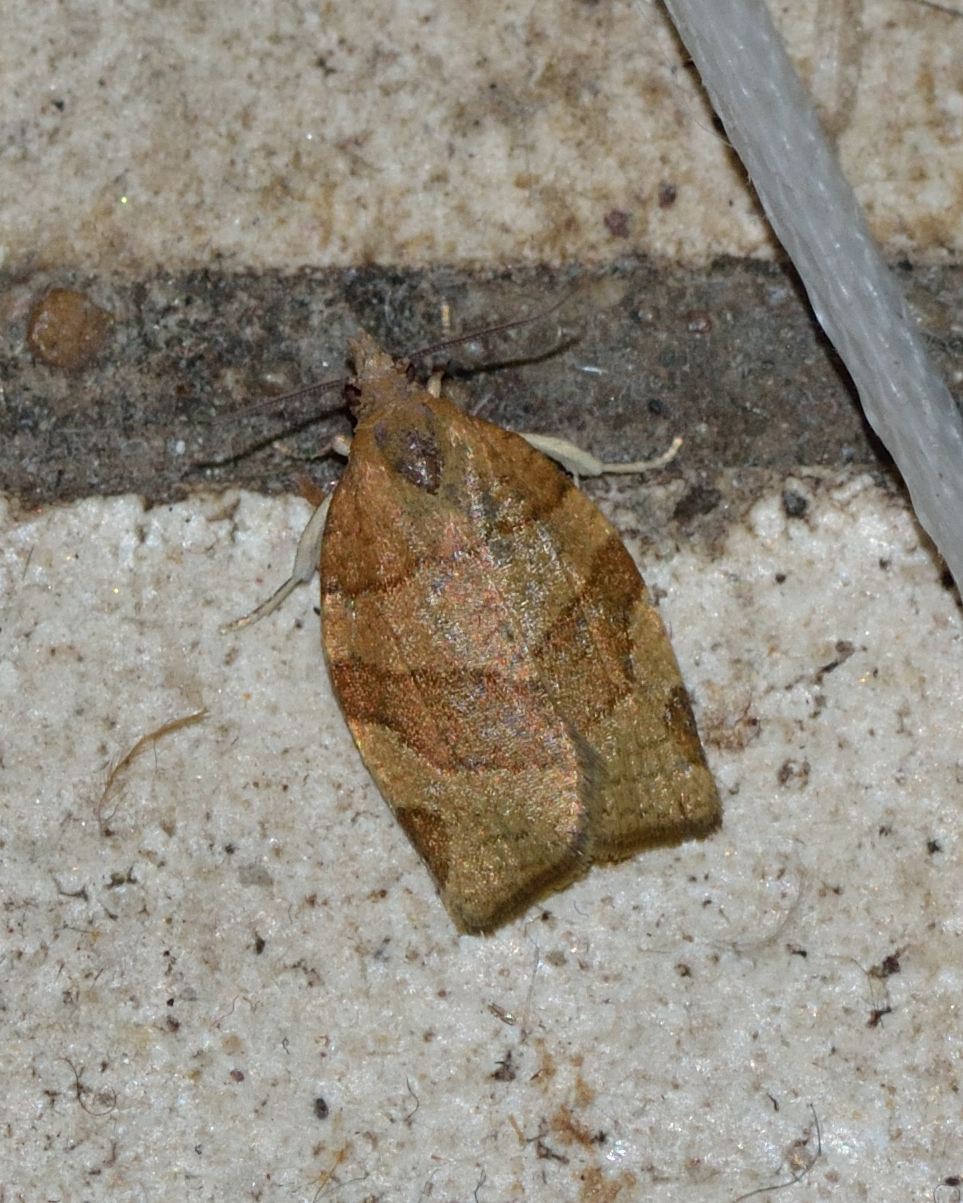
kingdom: Animalia
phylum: Arthropoda
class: Insecta
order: Lepidoptera
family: Tortricidae
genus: Pandemis
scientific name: Pandemis cerasana
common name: Barred fruit-tree tortrix
